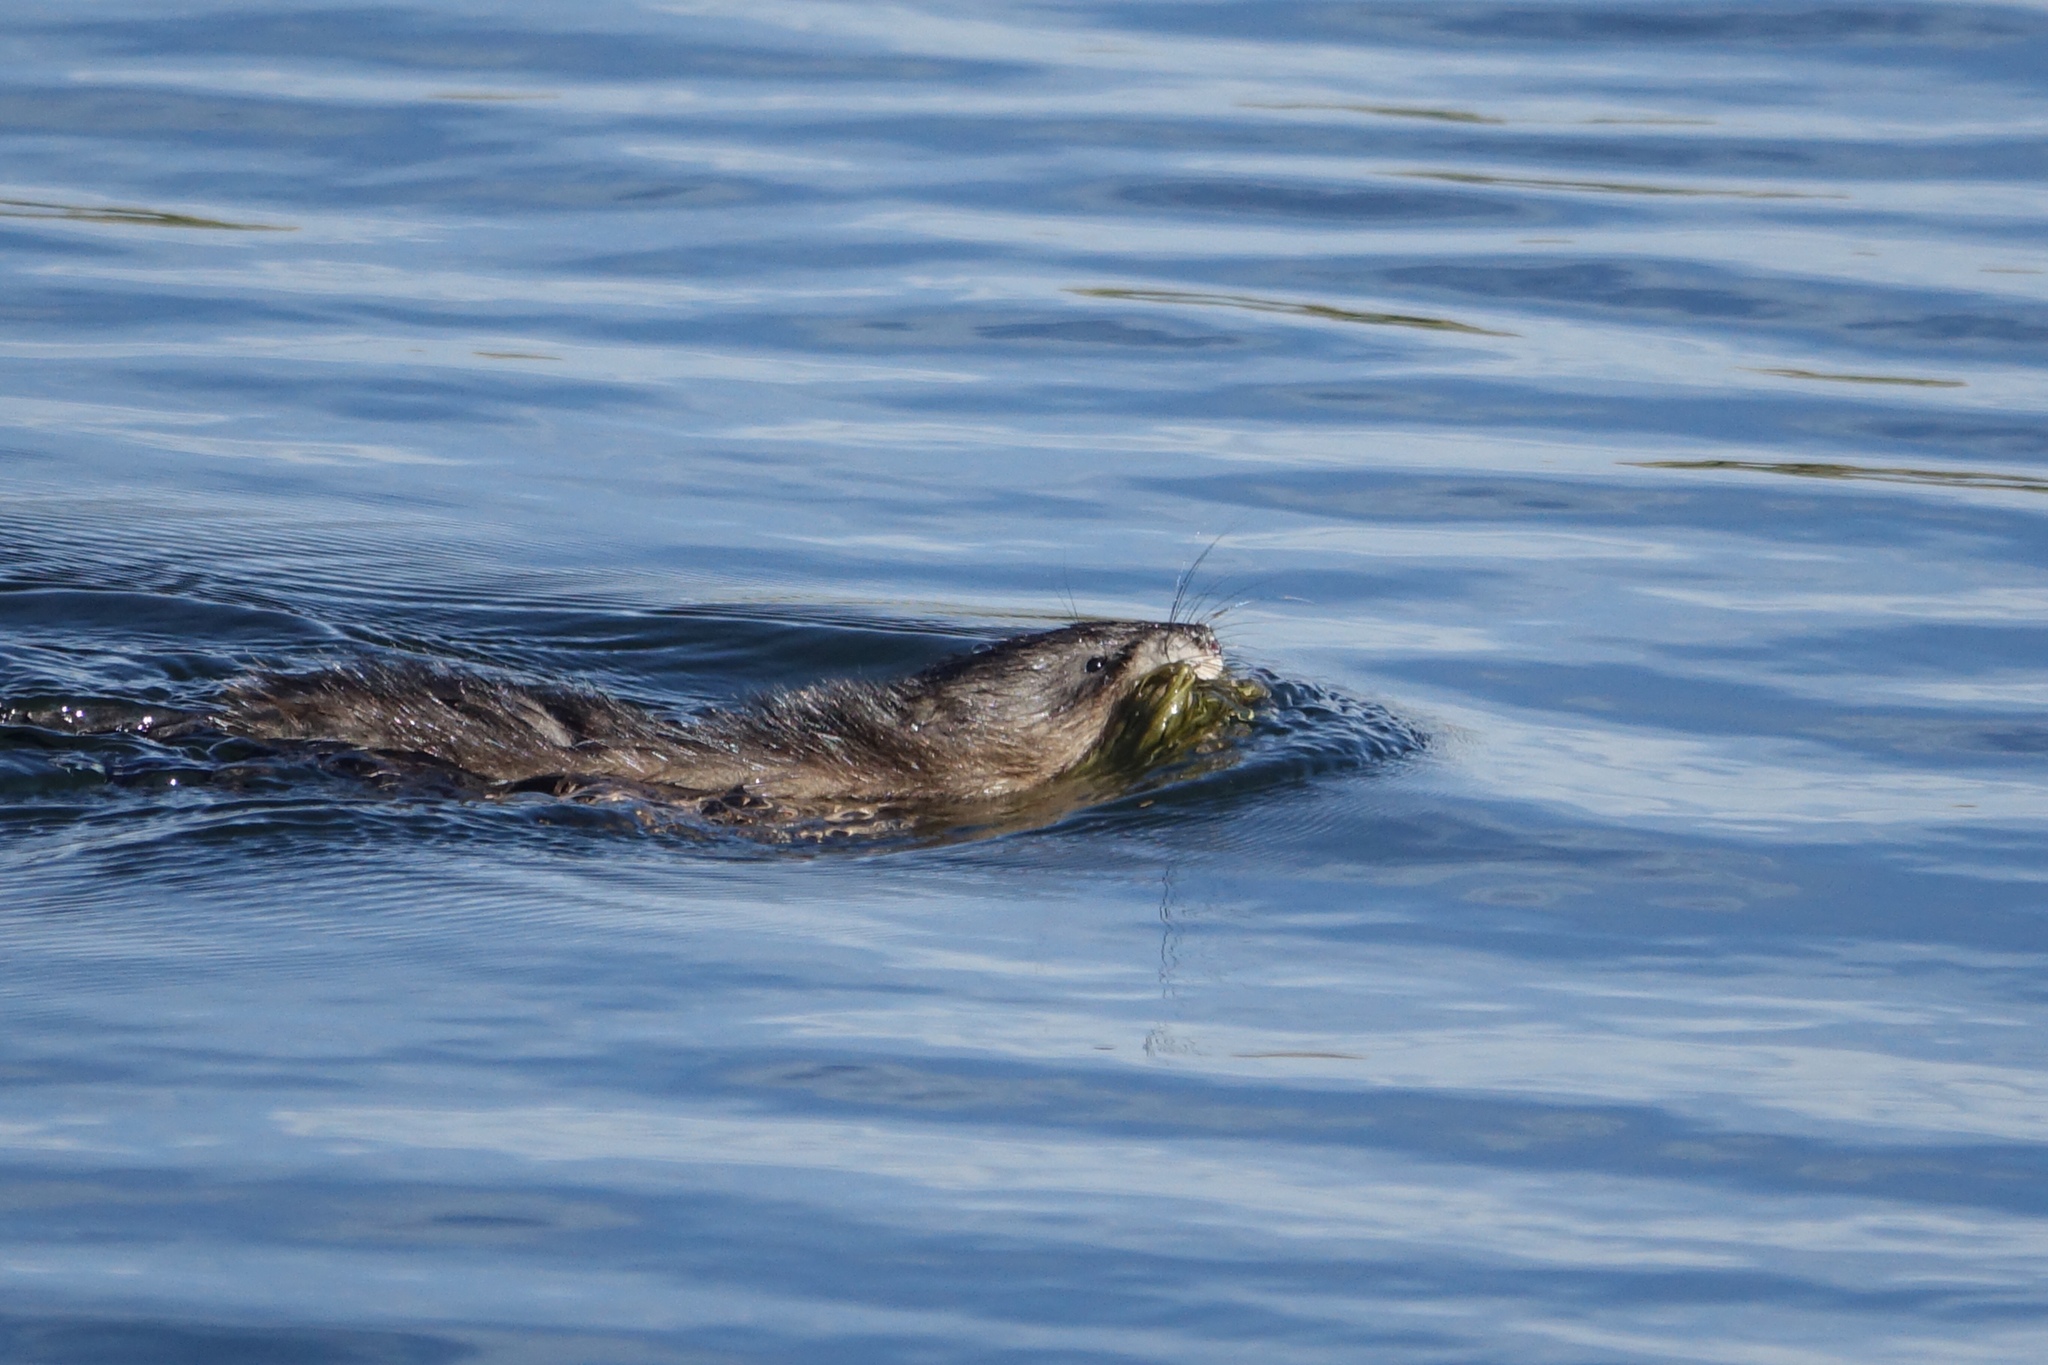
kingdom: Animalia
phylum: Chordata
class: Mammalia
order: Rodentia
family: Cricetidae
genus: Ondatra
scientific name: Ondatra zibethicus
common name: Muskrat
